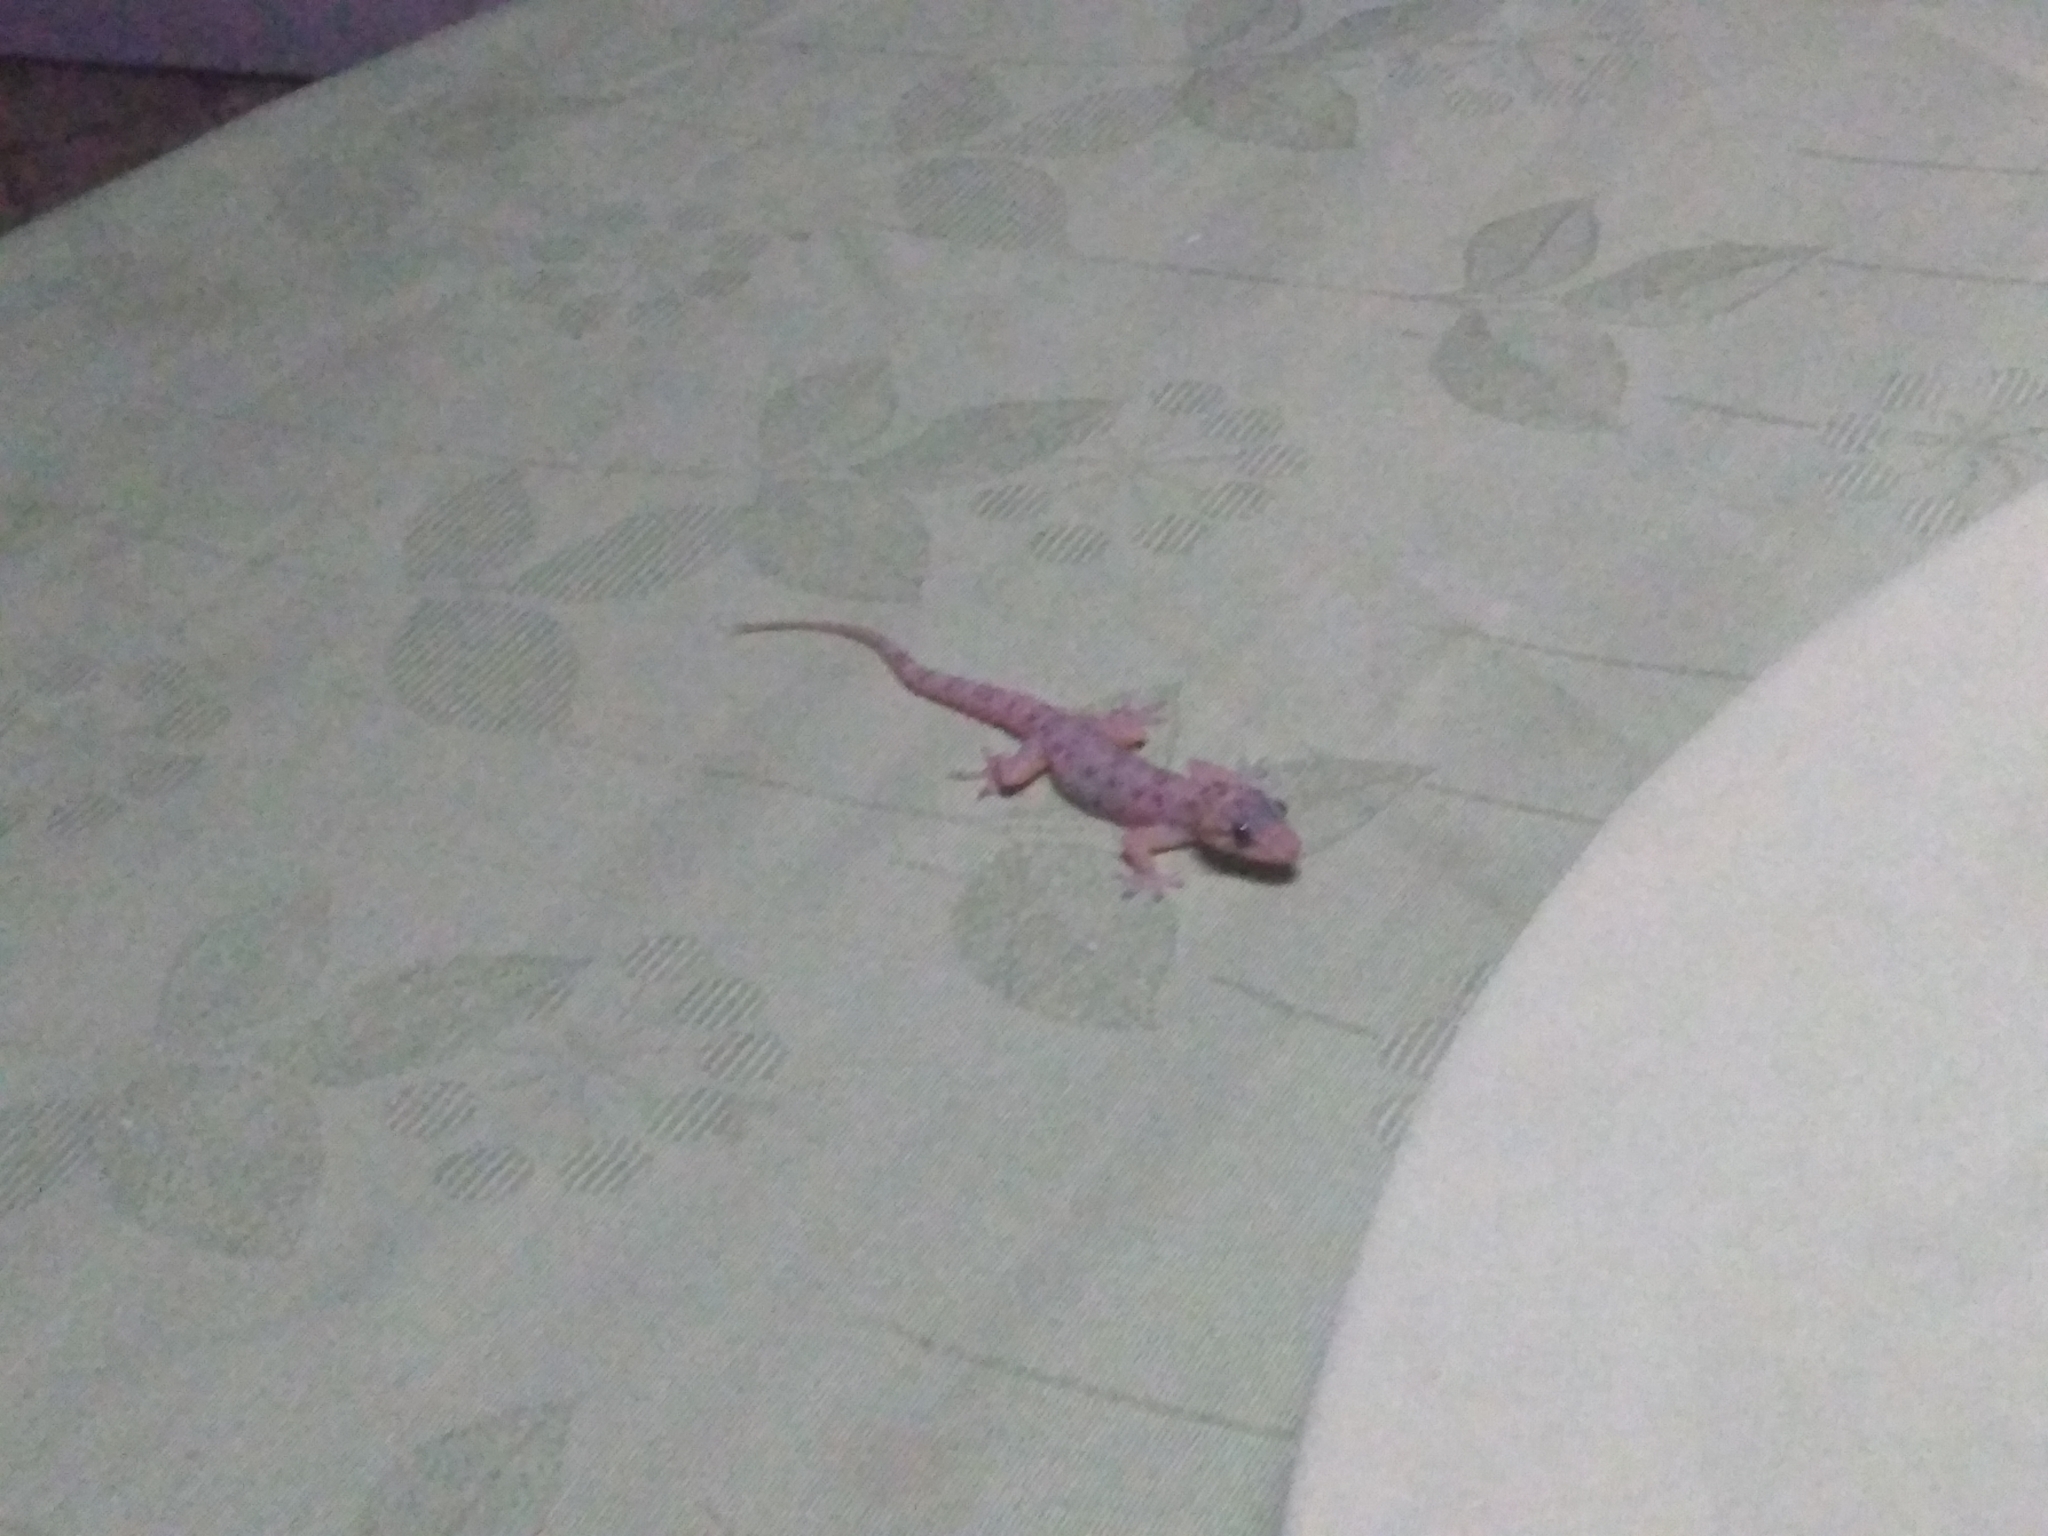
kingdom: Animalia
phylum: Chordata
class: Squamata
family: Gekkonidae
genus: Hemidactylus
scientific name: Hemidactylus brookii
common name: Brook's house gecko
